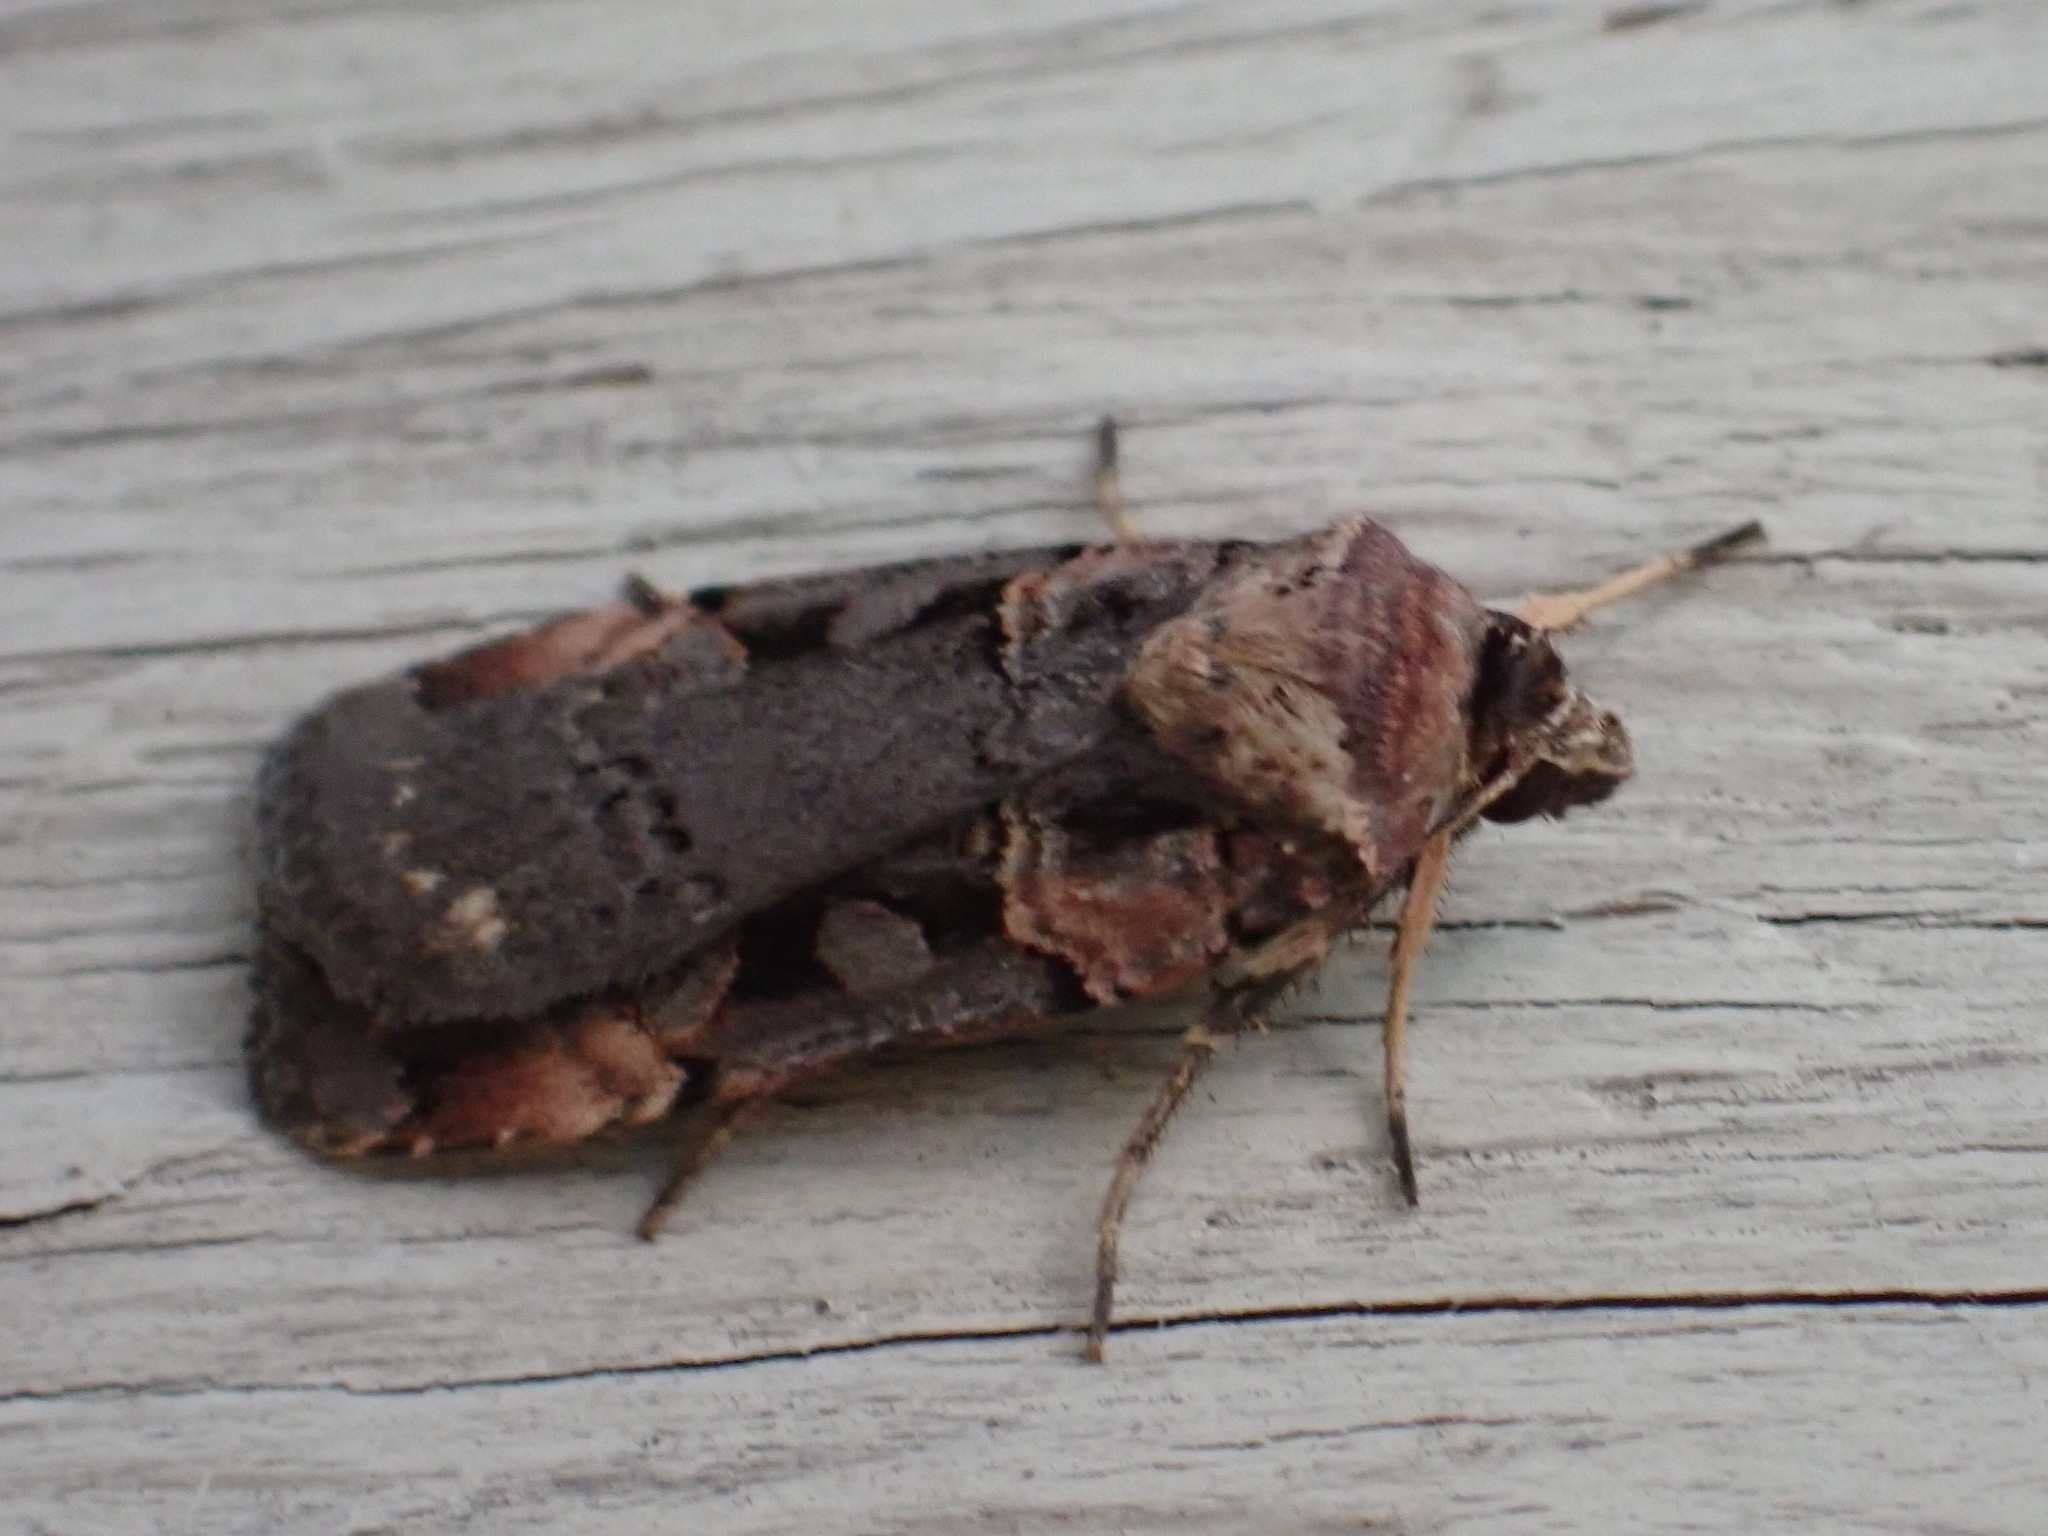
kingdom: Animalia
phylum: Arthropoda
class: Insecta
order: Lepidoptera
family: Noctuidae
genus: Pseudohermonassa
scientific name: Pseudohermonassa bicarnea
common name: Pink spotted dart
